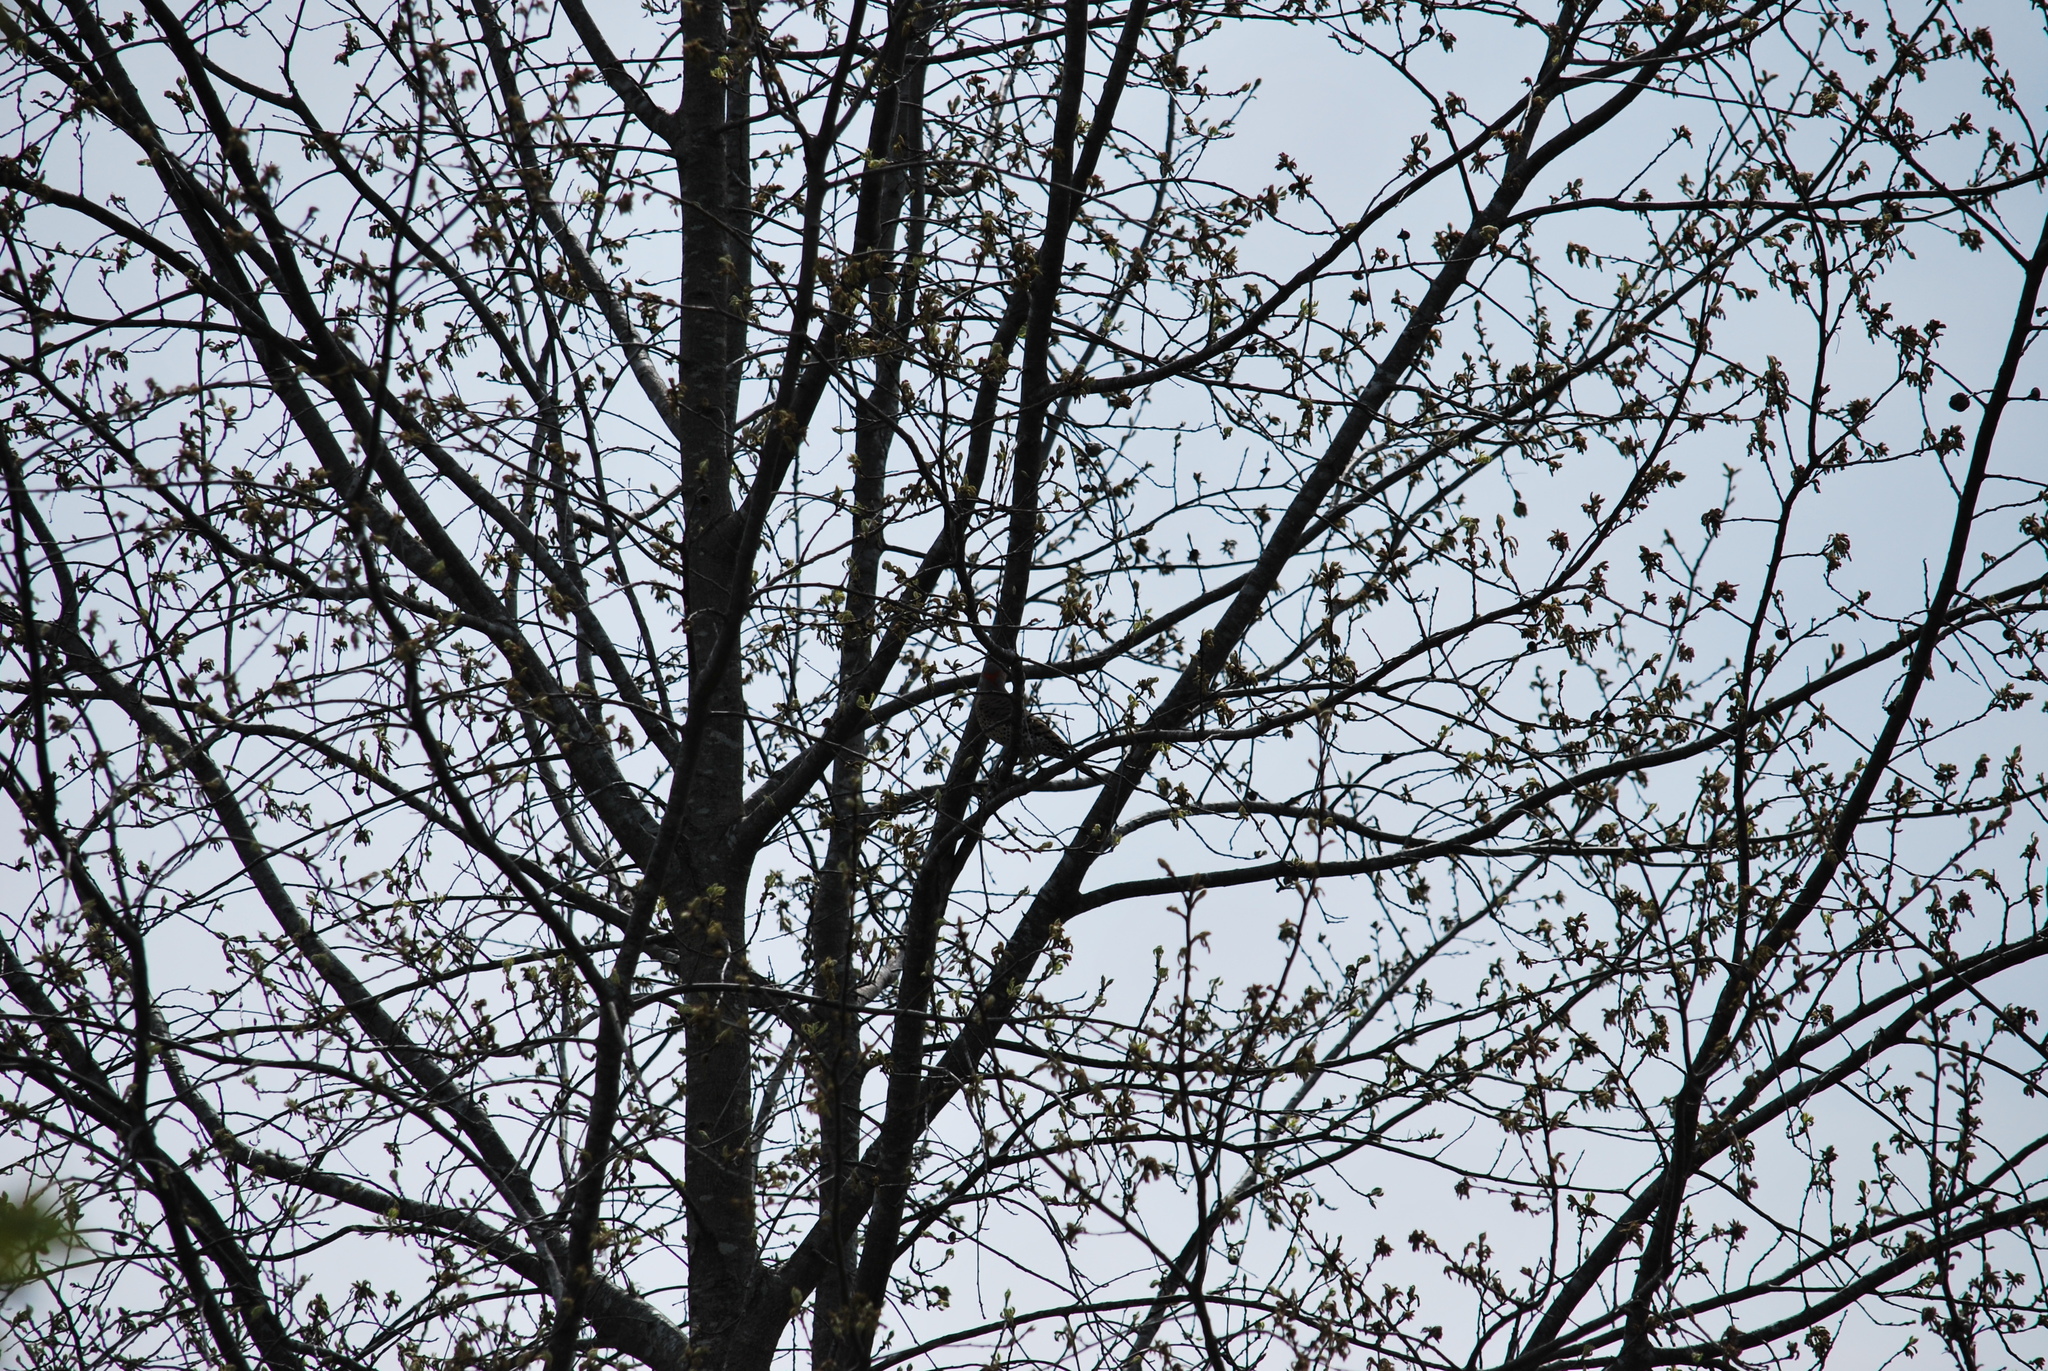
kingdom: Animalia
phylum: Chordata
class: Aves
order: Piciformes
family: Picidae
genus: Colaptes
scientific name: Colaptes auratus
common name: Northern flicker
